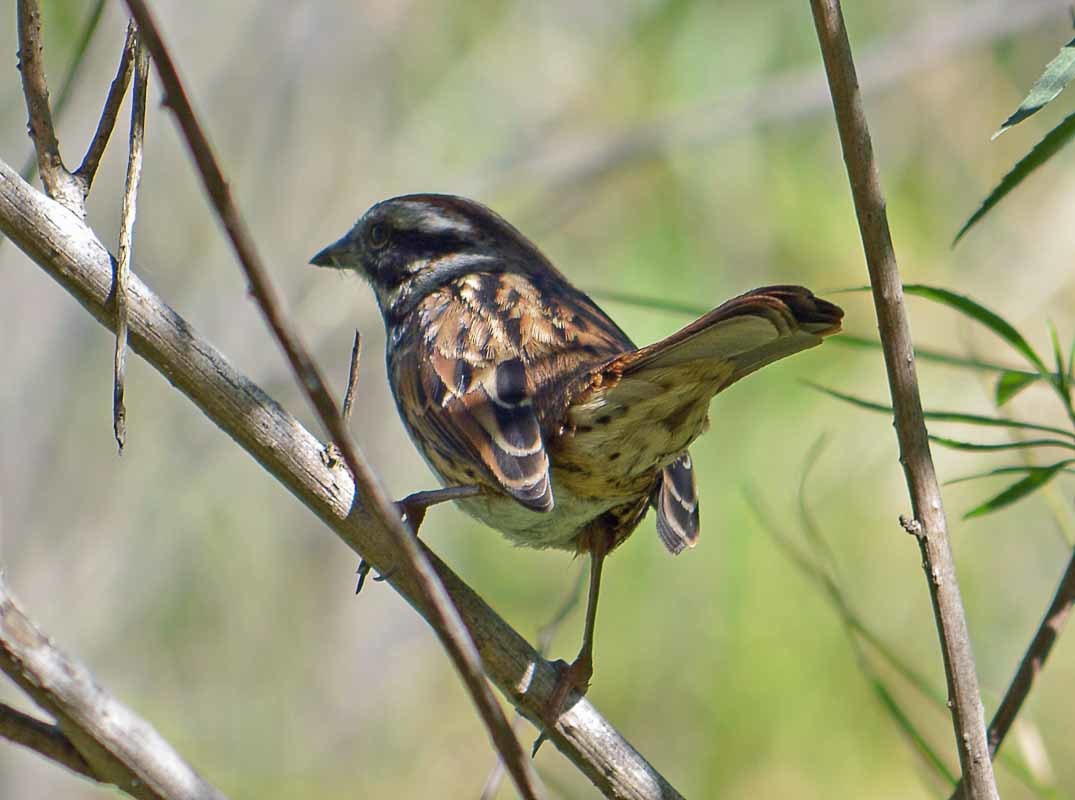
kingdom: Animalia
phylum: Chordata
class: Aves
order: Passeriformes
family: Passerellidae
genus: Melospiza
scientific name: Melospiza melodia
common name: Song sparrow
